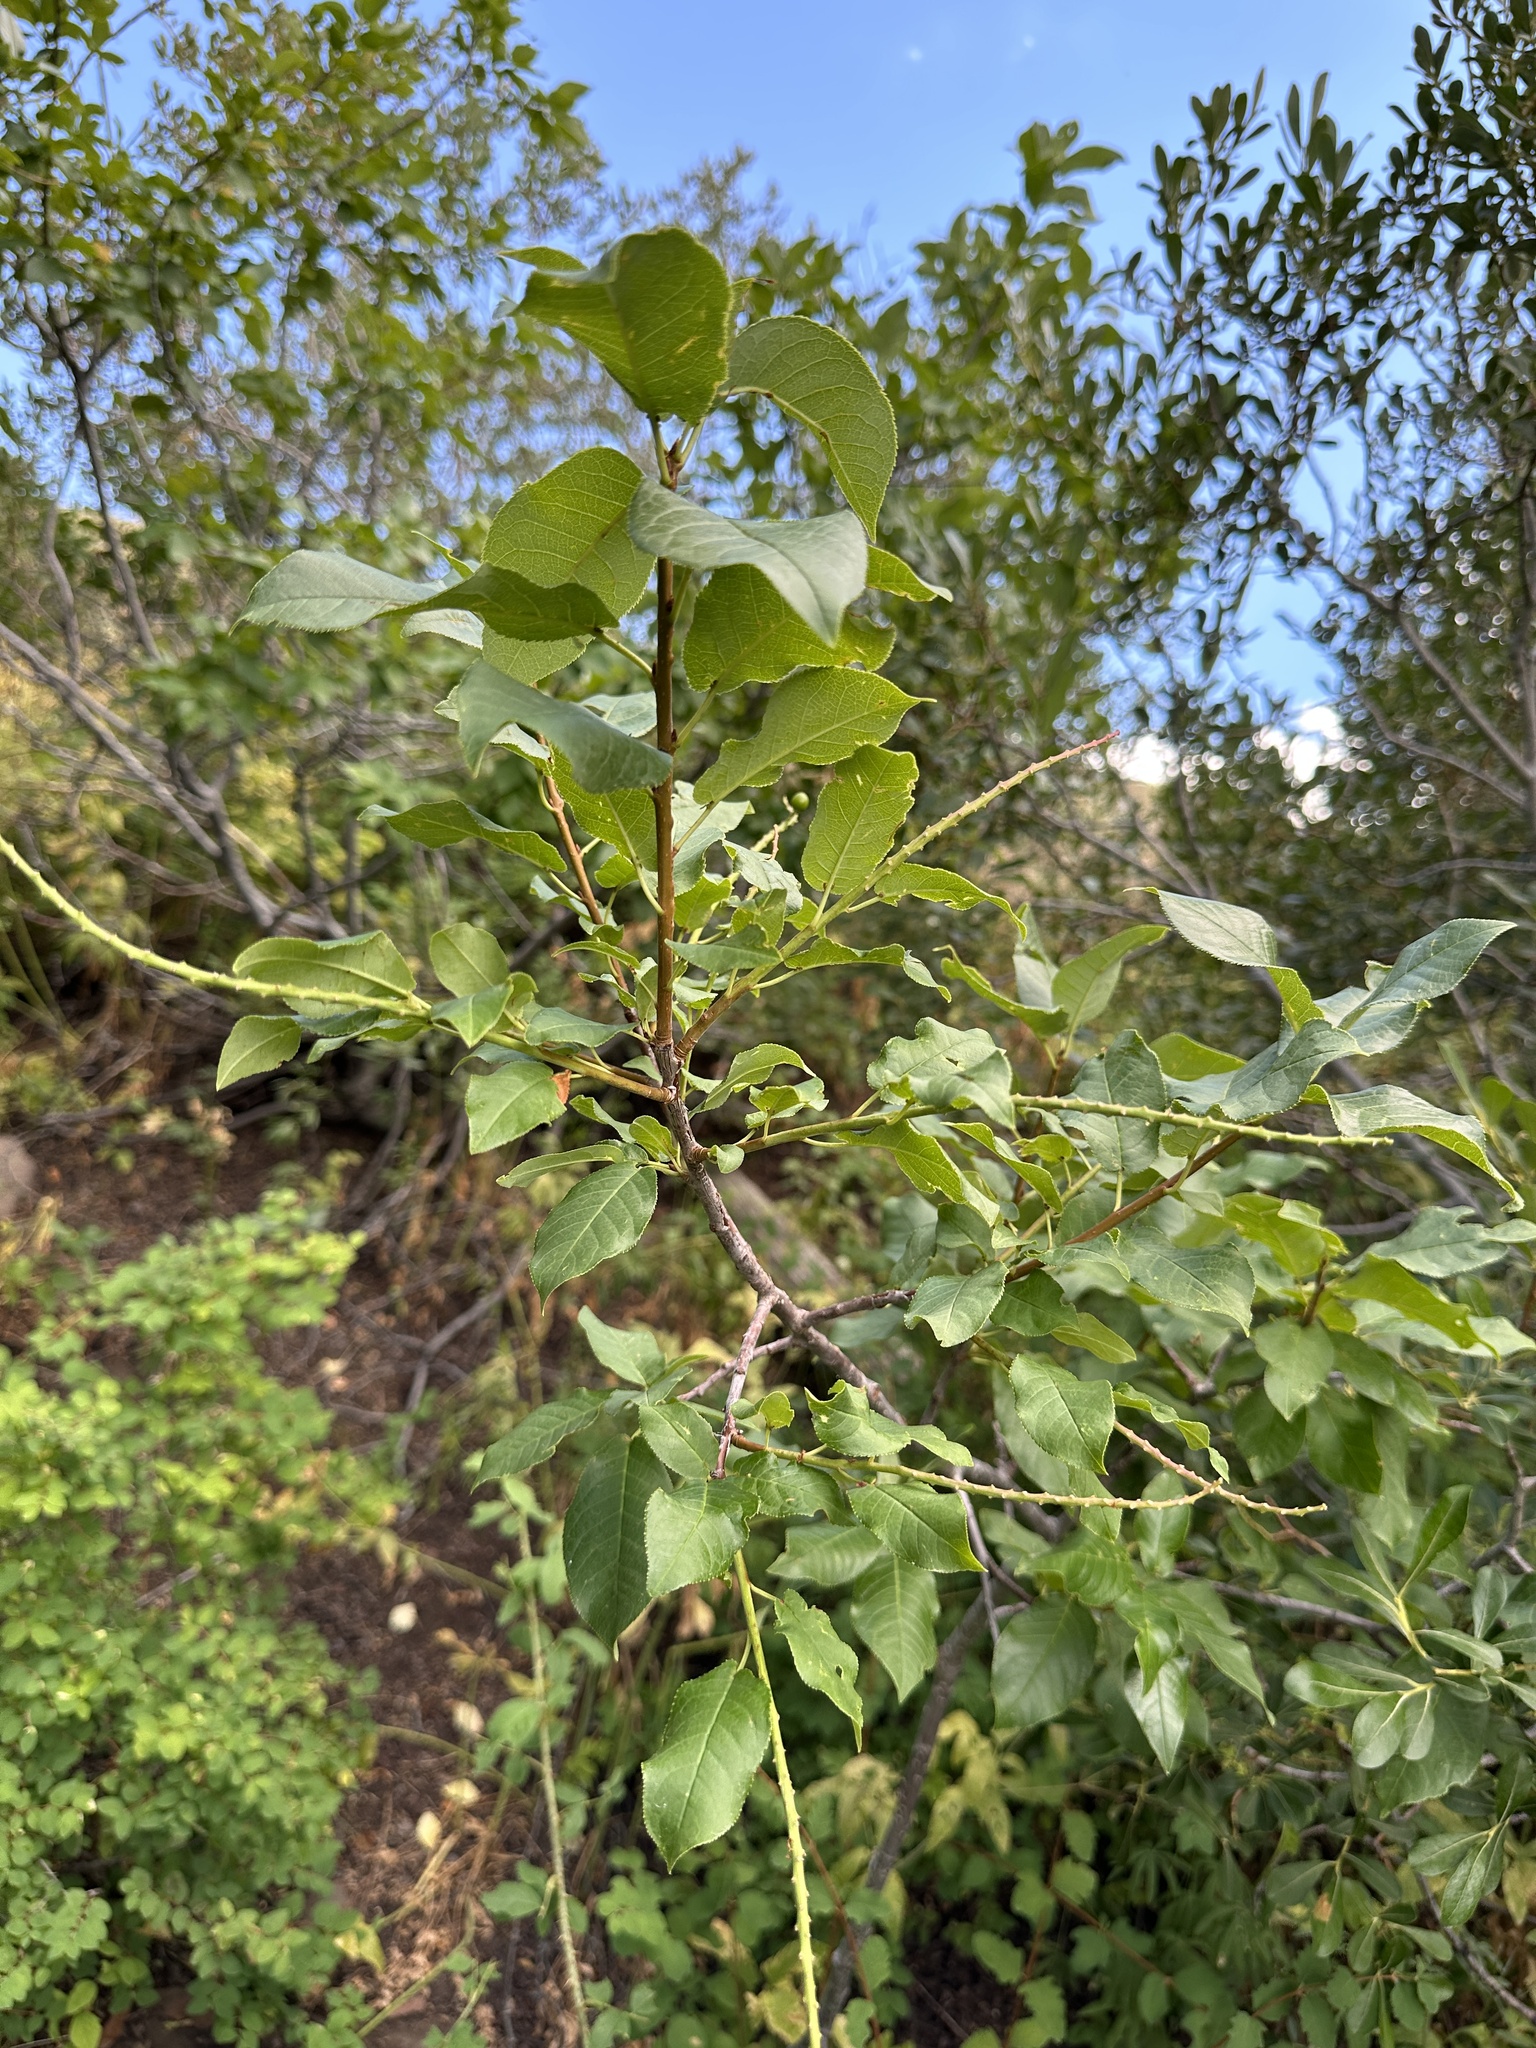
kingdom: Plantae
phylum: Tracheophyta
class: Magnoliopsida
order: Rosales
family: Rosaceae
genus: Prunus
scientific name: Prunus virginiana
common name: Chokecherry
